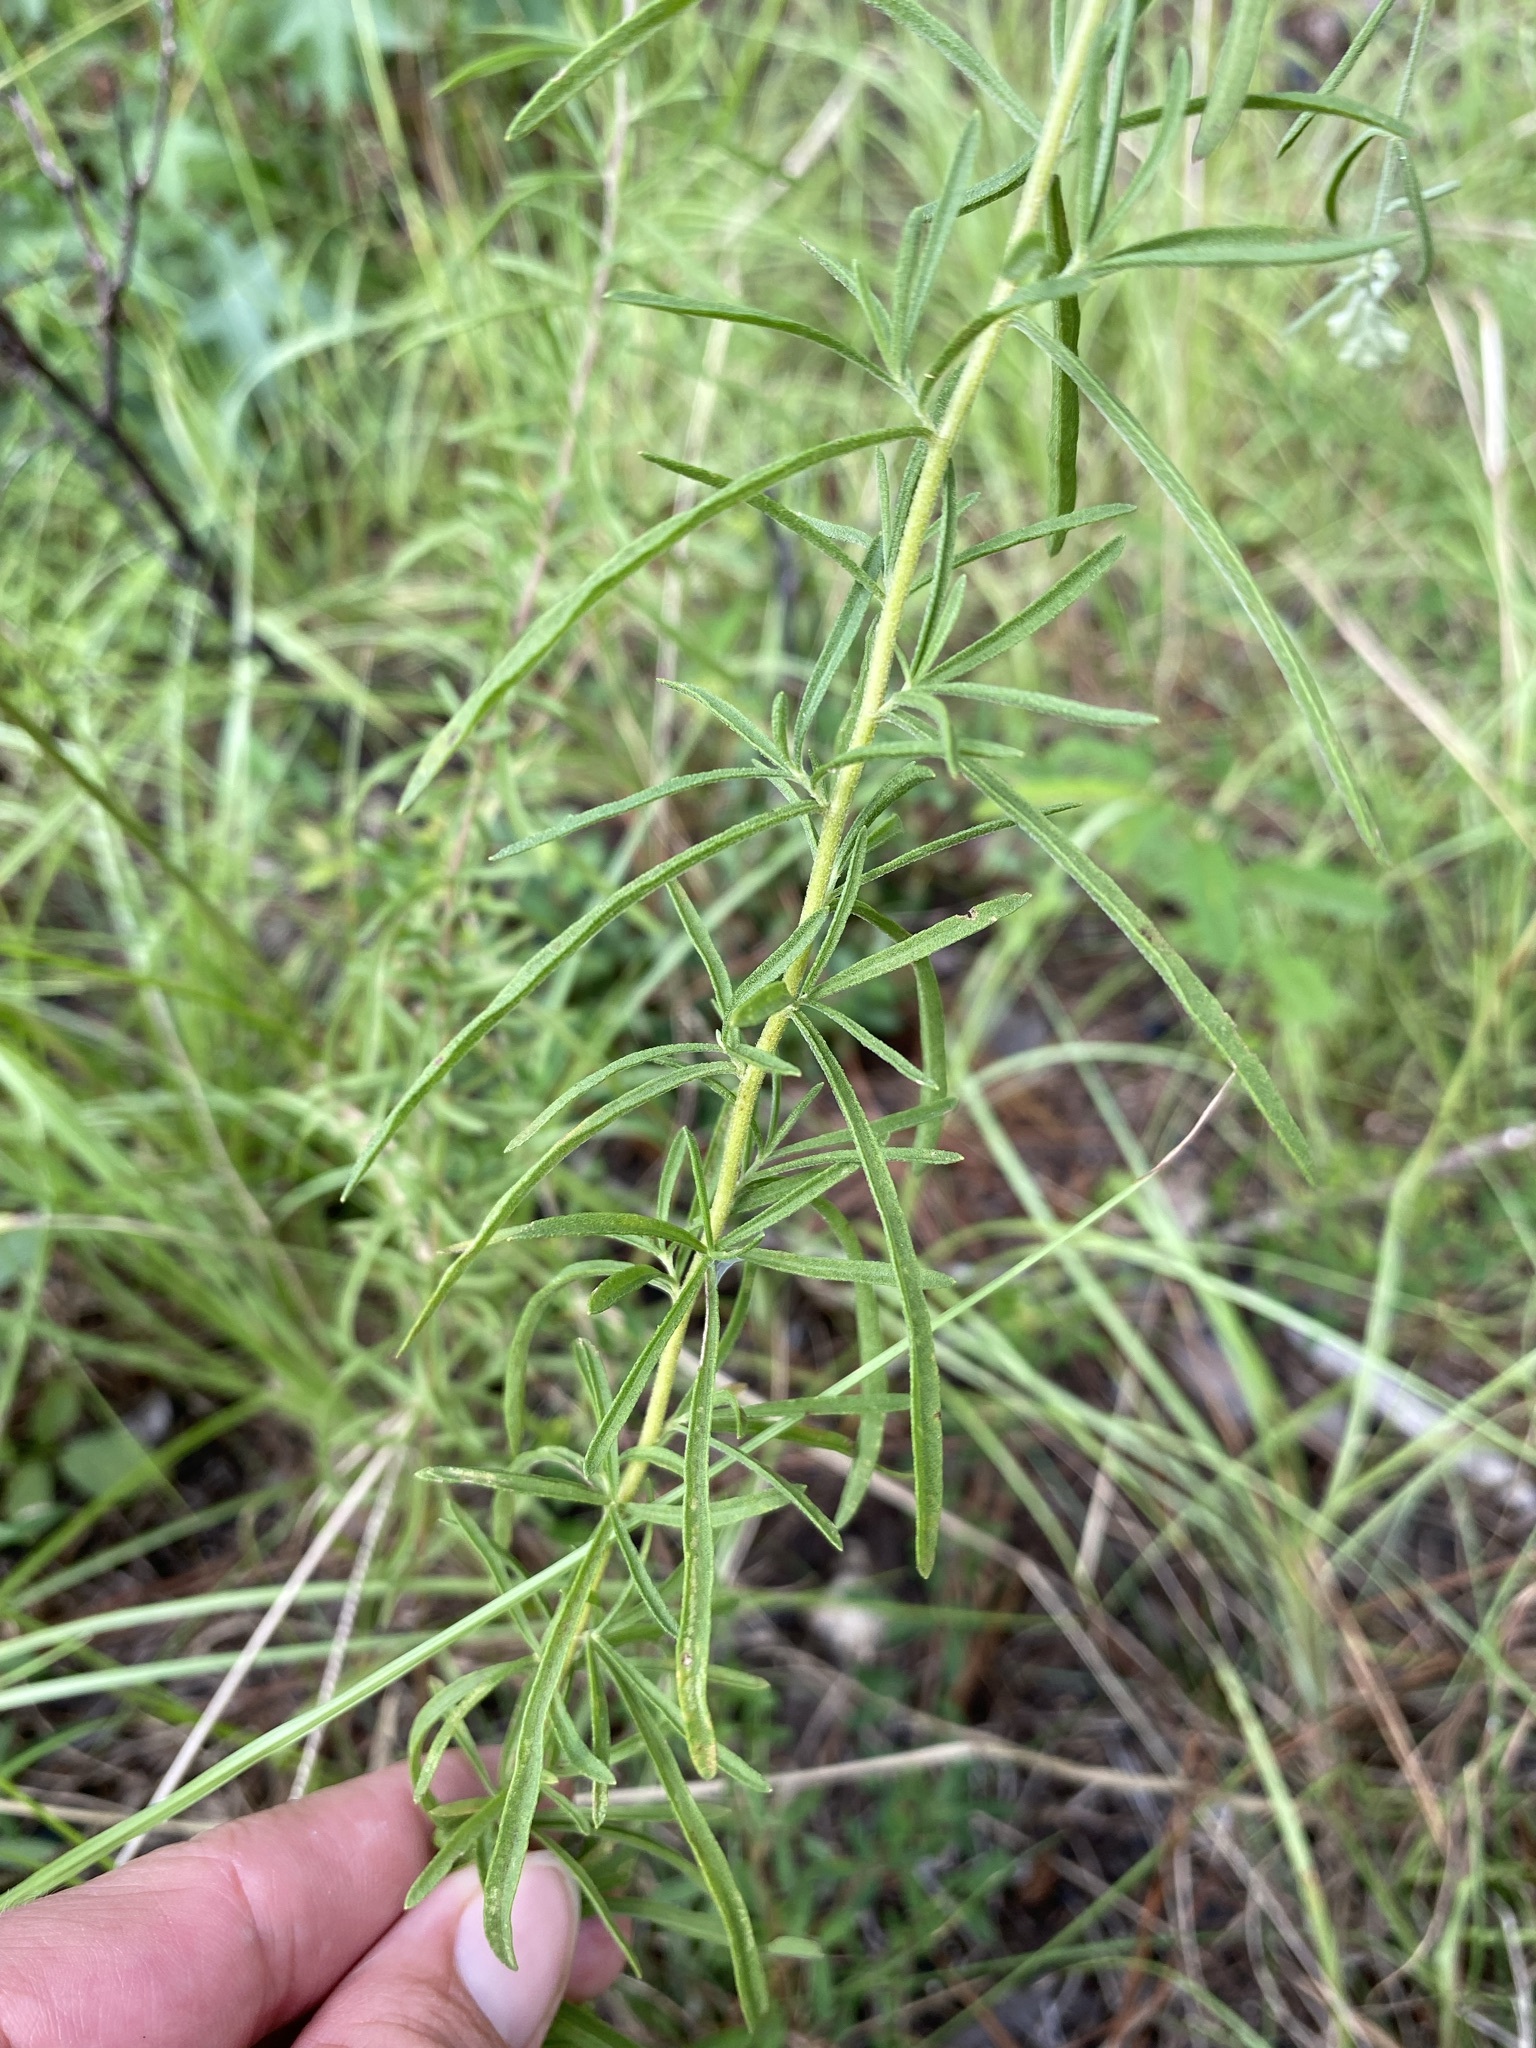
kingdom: Plantae
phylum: Tracheophyta
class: Magnoliopsida
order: Asterales
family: Asteraceae
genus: Eupatorium
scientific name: Eupatorium hyssopifolium
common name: Hyssop-leaf thoroughwort
